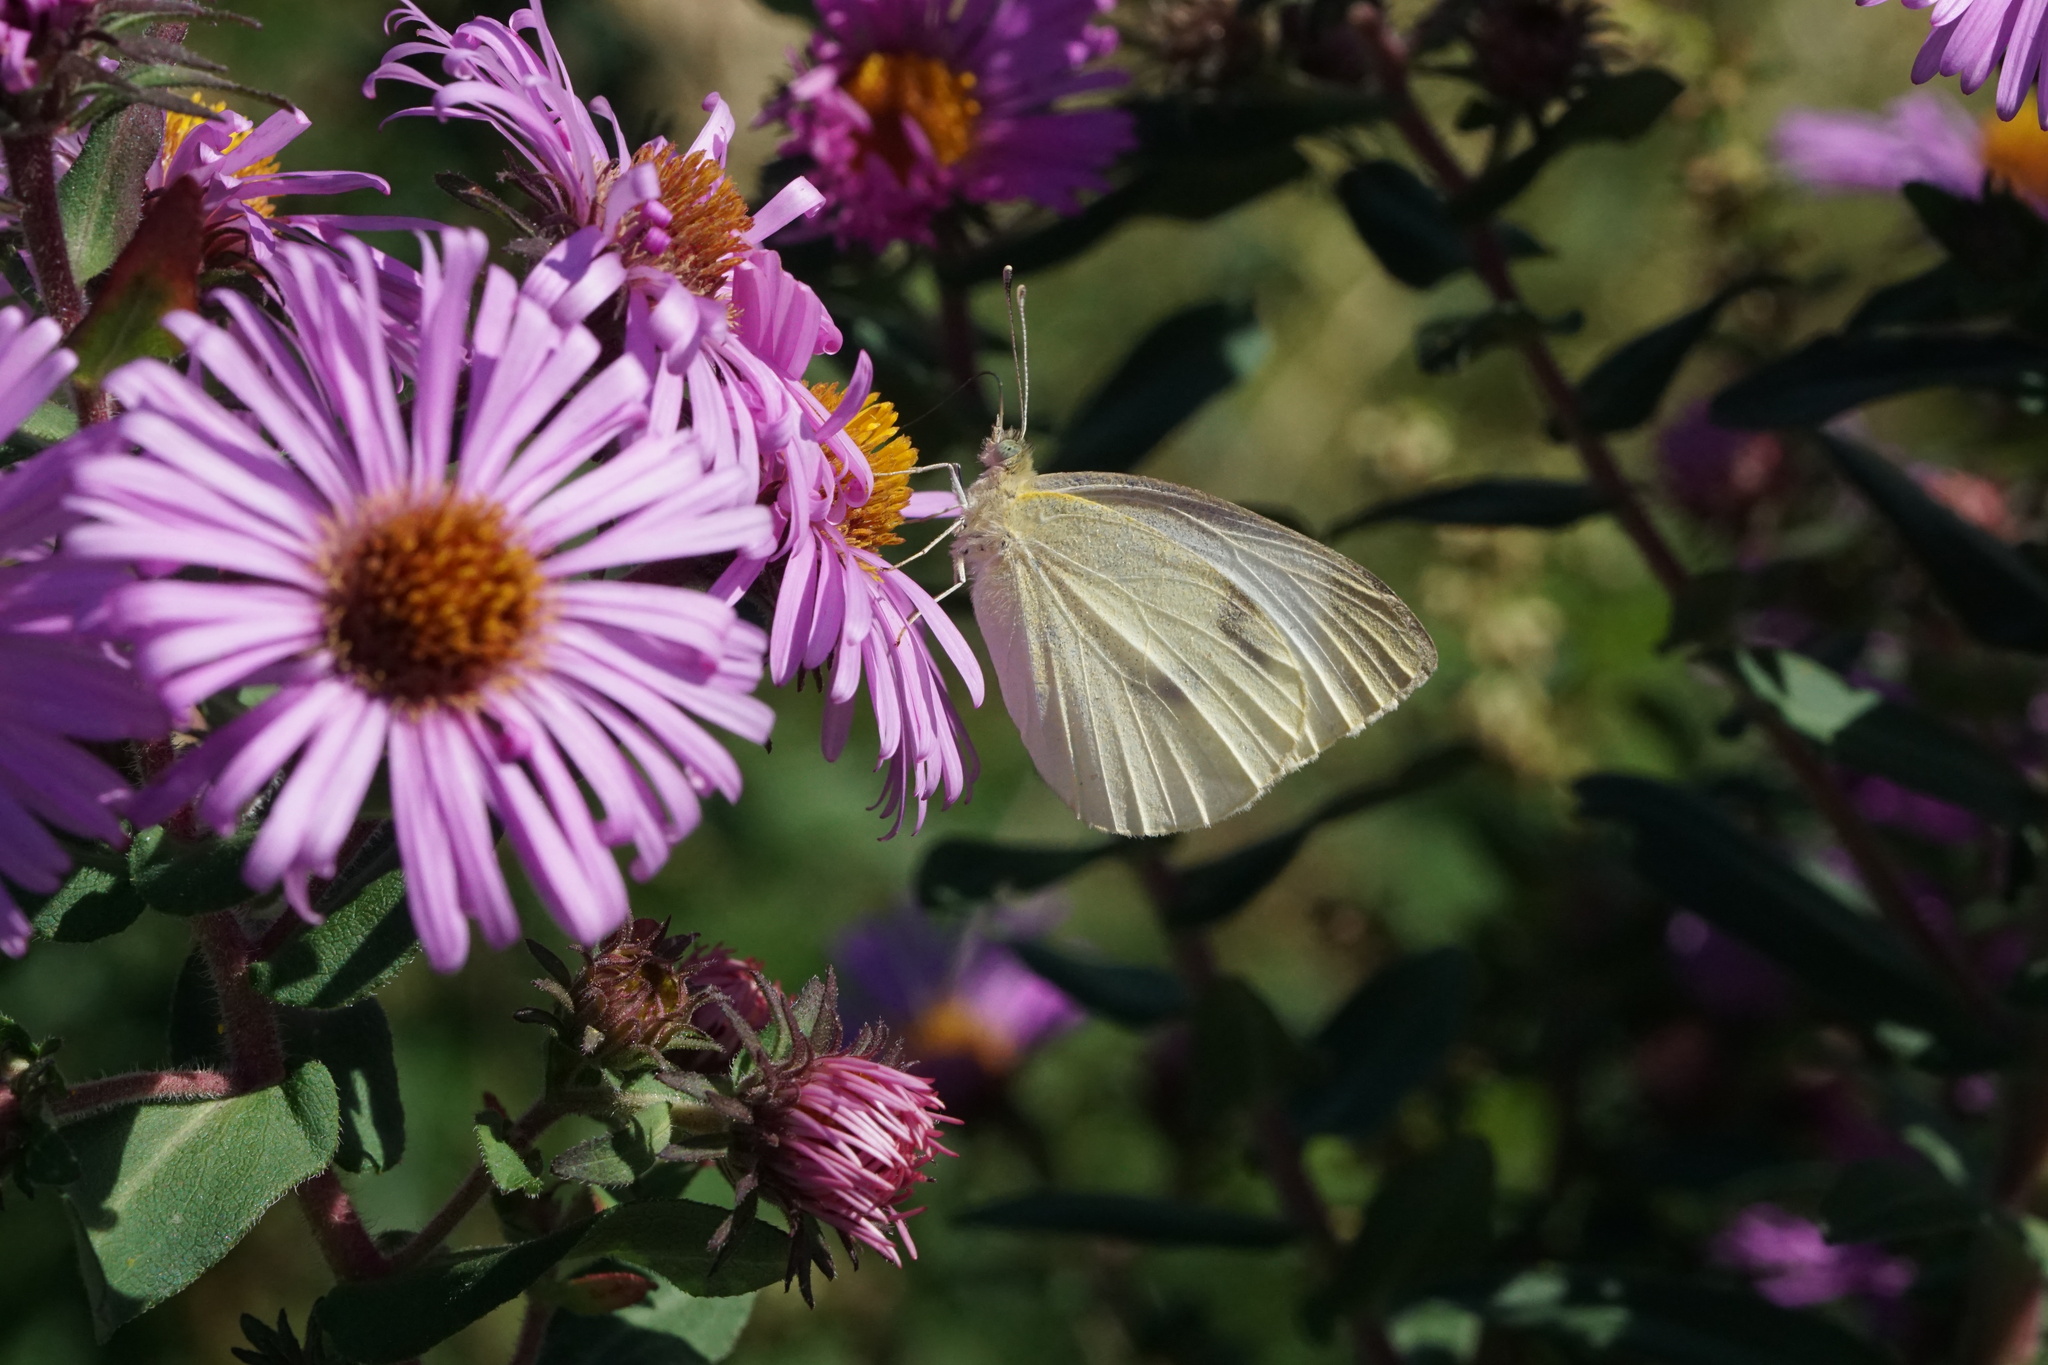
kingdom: Animalia
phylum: Arthropoda
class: Insecta
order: Lepidoptera
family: Pieridae
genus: Pieris
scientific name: Pieris rapae
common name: Small white
